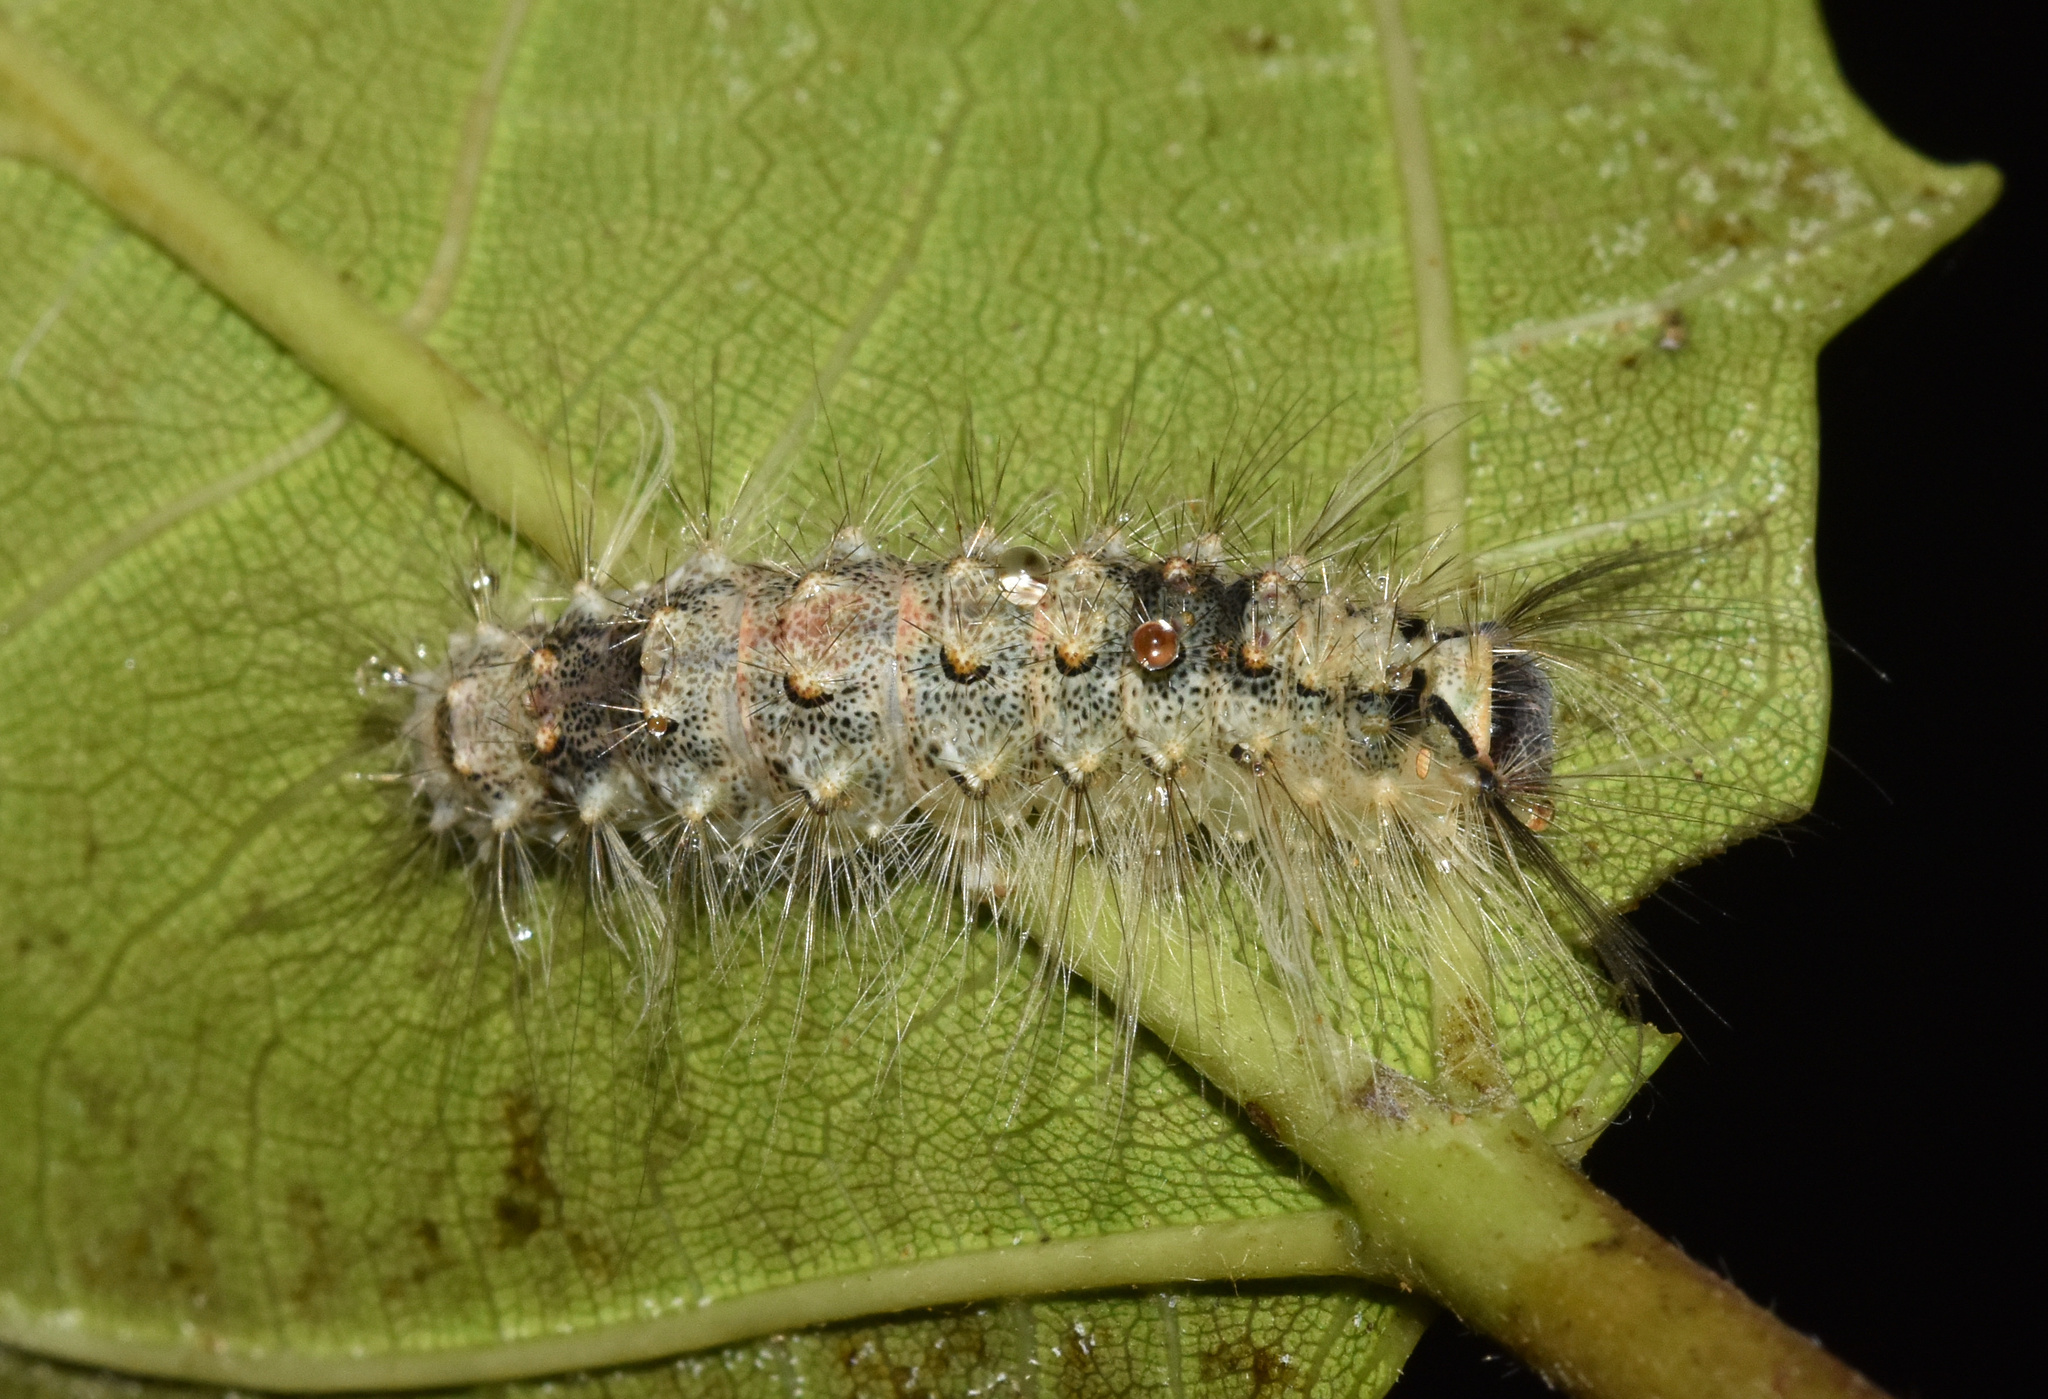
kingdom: Animalia
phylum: Arthropoda
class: Insecta
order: Lepidoptera
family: Erebidae
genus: Naroma
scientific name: Naroma varipes
